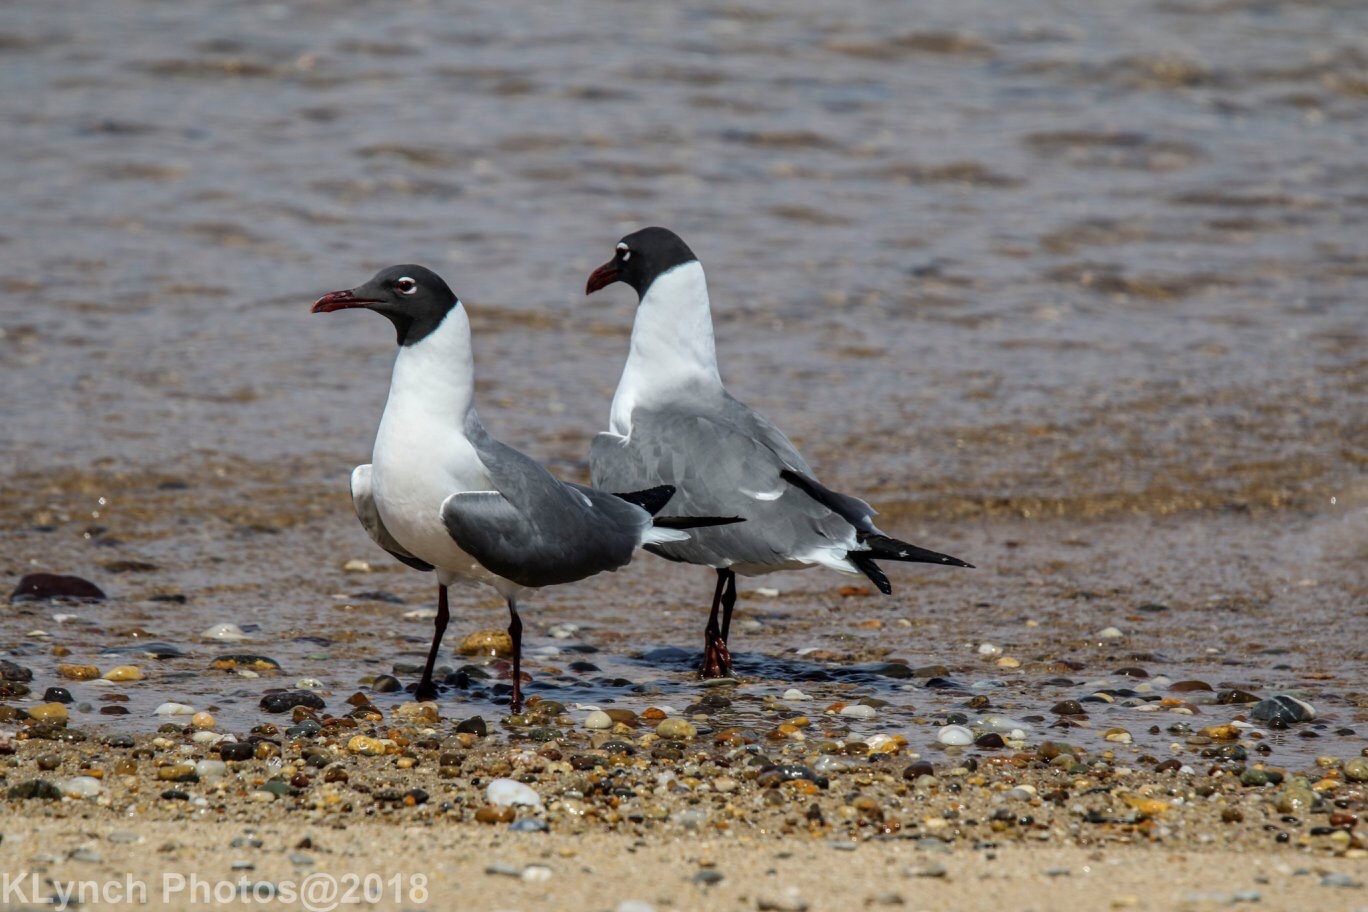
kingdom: Animalia
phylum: Chordata
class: Aves
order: Charadriiformes
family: Laridae
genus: Leucophaeus
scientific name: Leucophaeus atricilla
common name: Laughing gull
